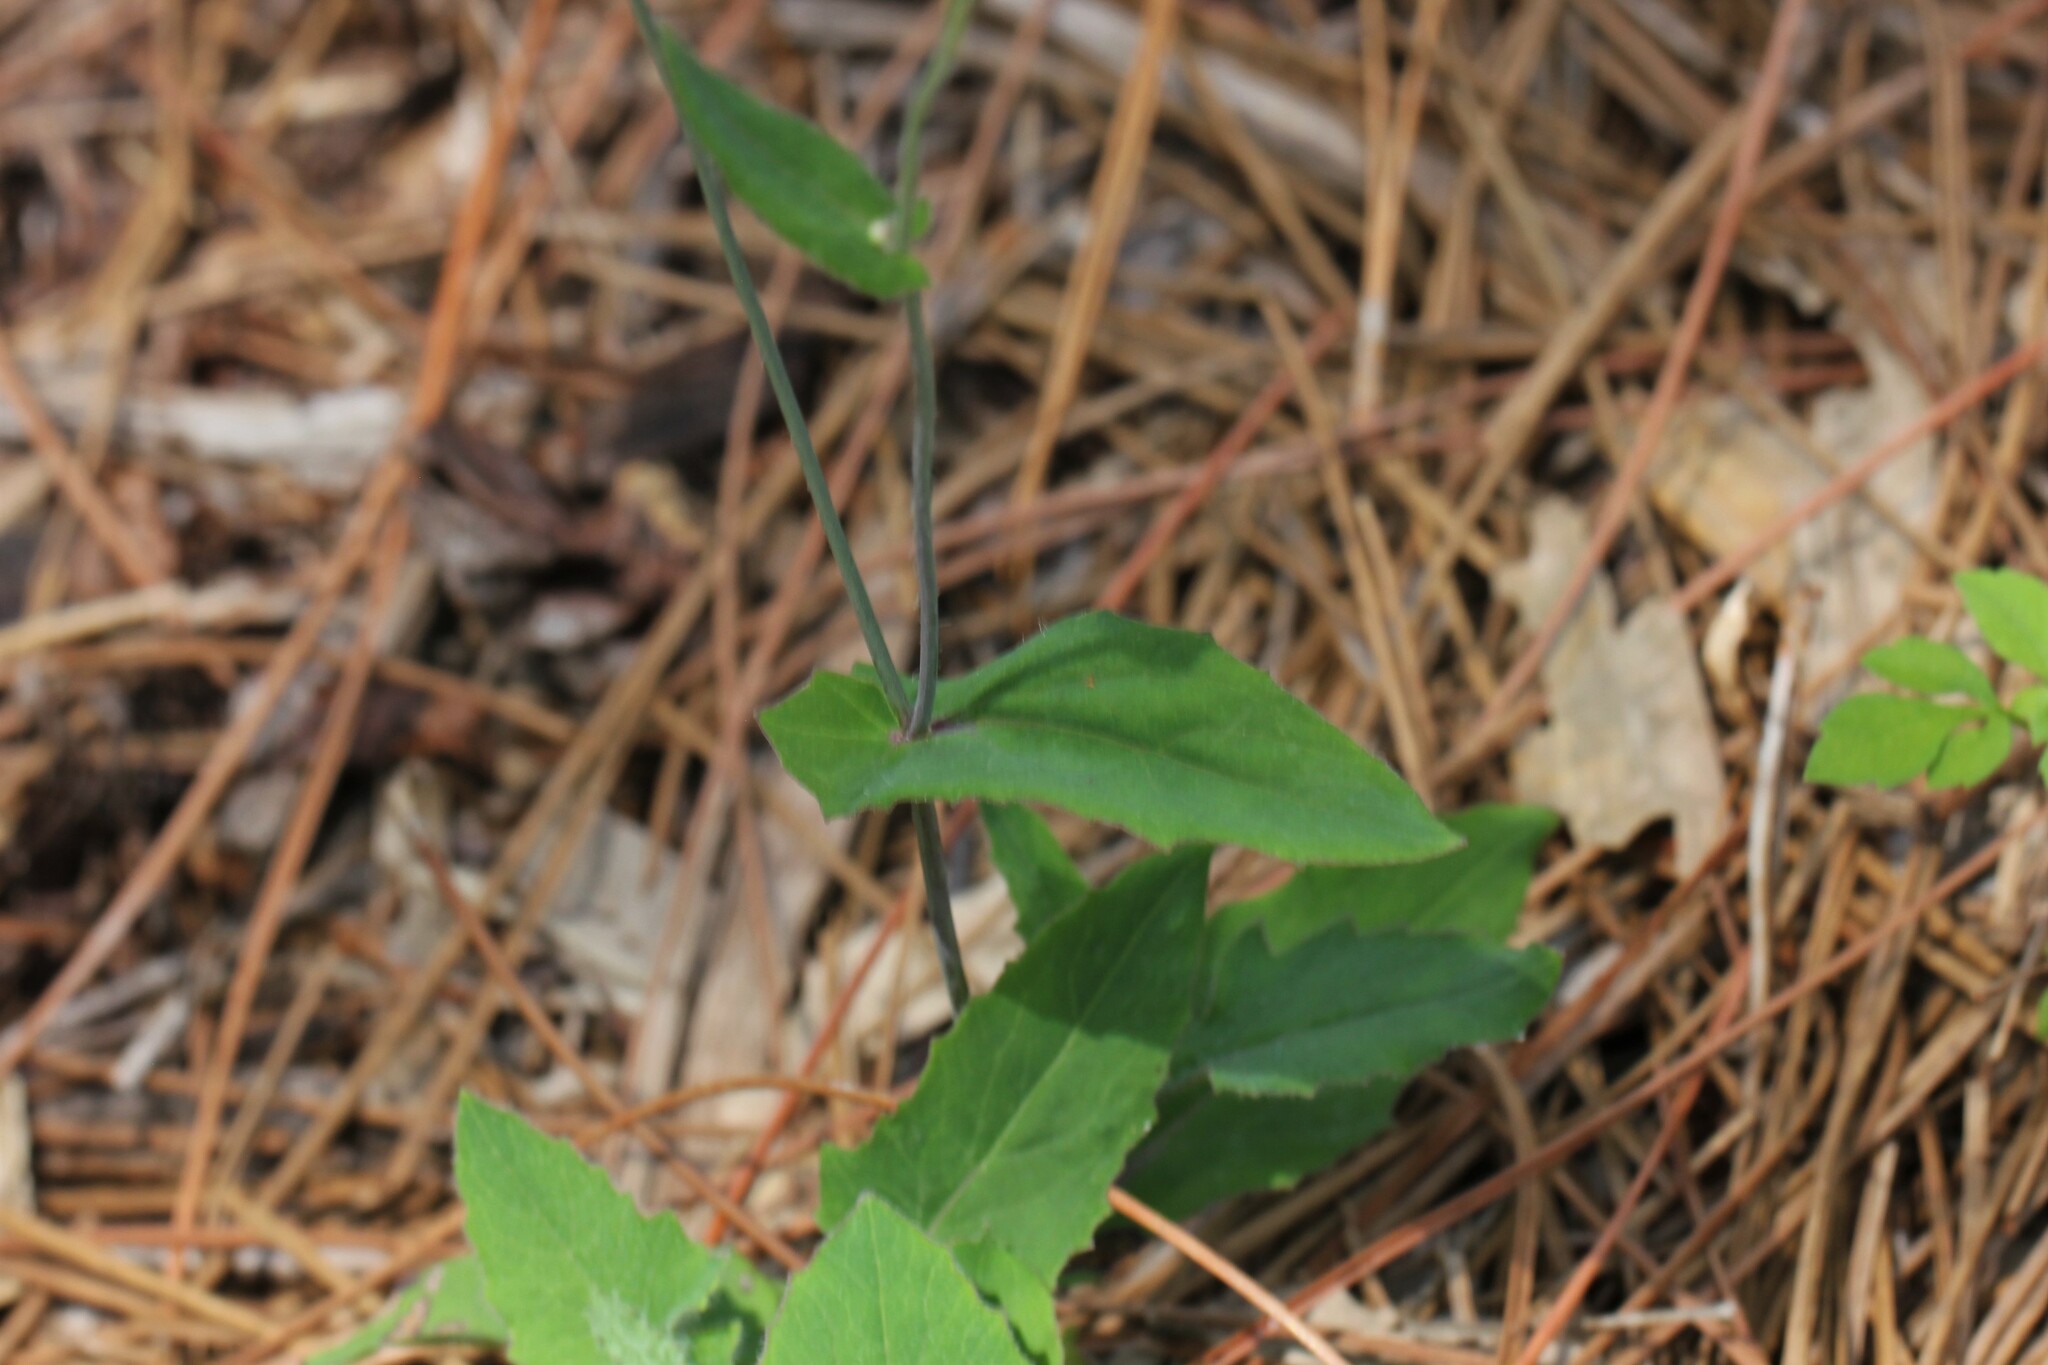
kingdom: Plantae
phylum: Tracheophyta
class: Magnoliopsida
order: Asterales
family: Asteraceae
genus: Emilia
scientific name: Emilia sonchifolia
